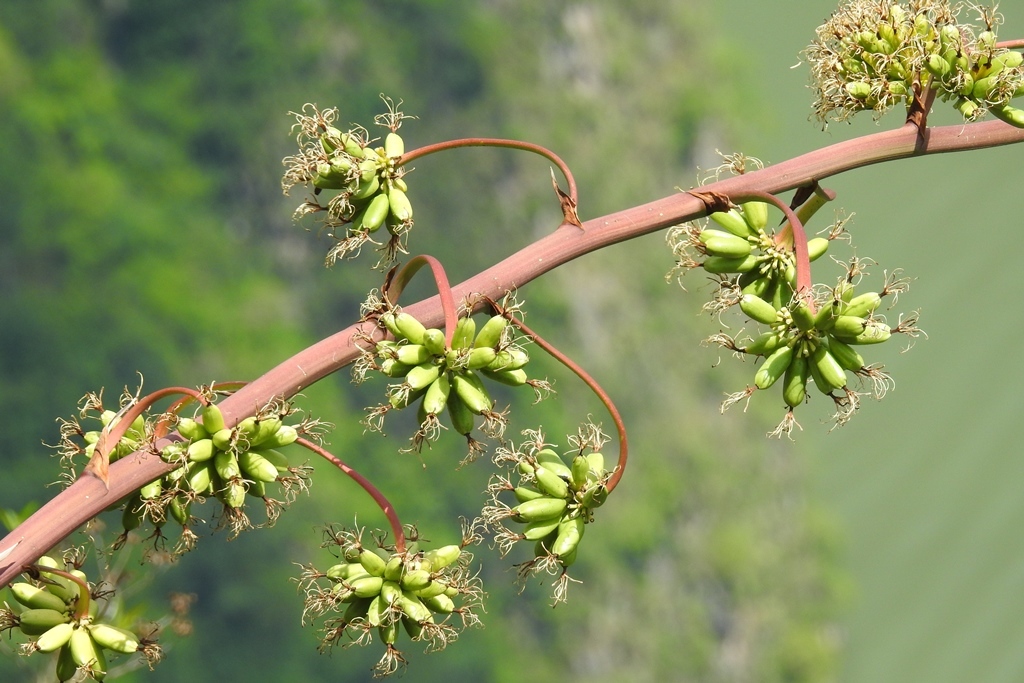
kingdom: Plantae
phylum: Tracheophyta
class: Liliopsida
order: Asparagales
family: Asparagaceae
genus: Agave
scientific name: Agave kewensis
